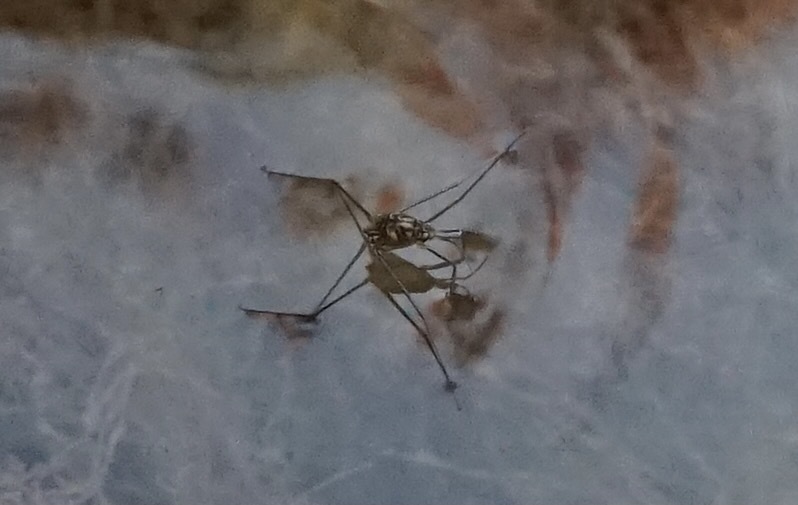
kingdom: Animalia
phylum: Arthropoda
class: Insecta
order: Hemiptera
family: Gerridae
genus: Metrocoris
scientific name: Metrocoris histrio
